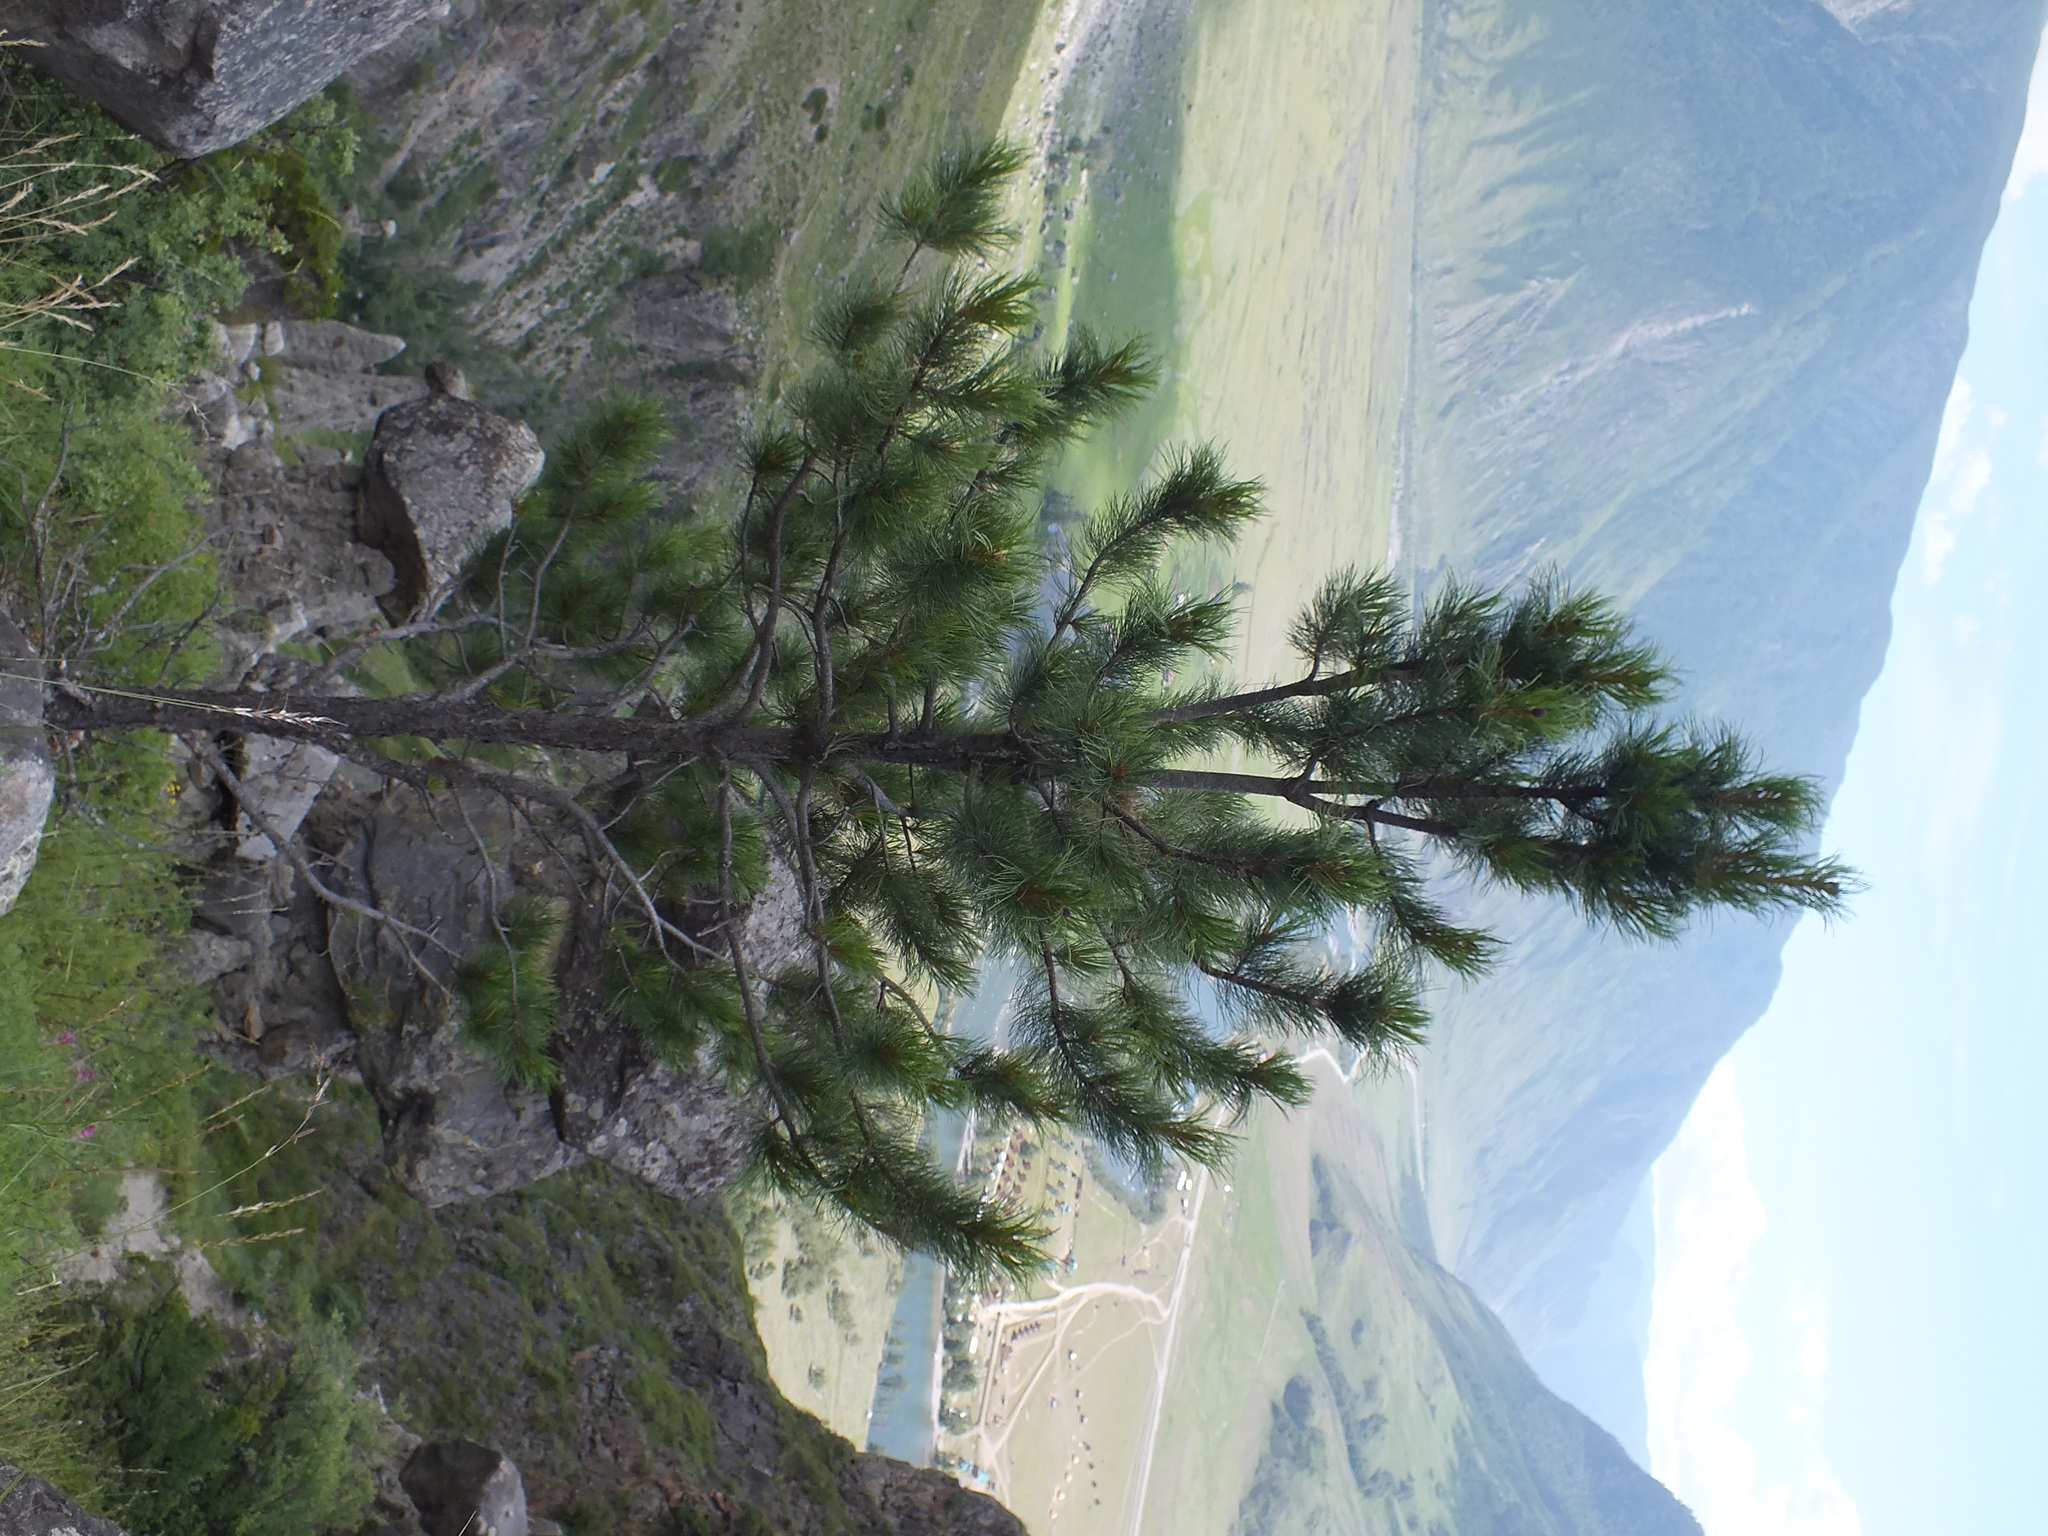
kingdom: Plantae
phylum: Tracheophyta
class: Pinopsida
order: Pinales
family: Pinaceae
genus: Pinus
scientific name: Pinus sibirica
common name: Siberian pine
